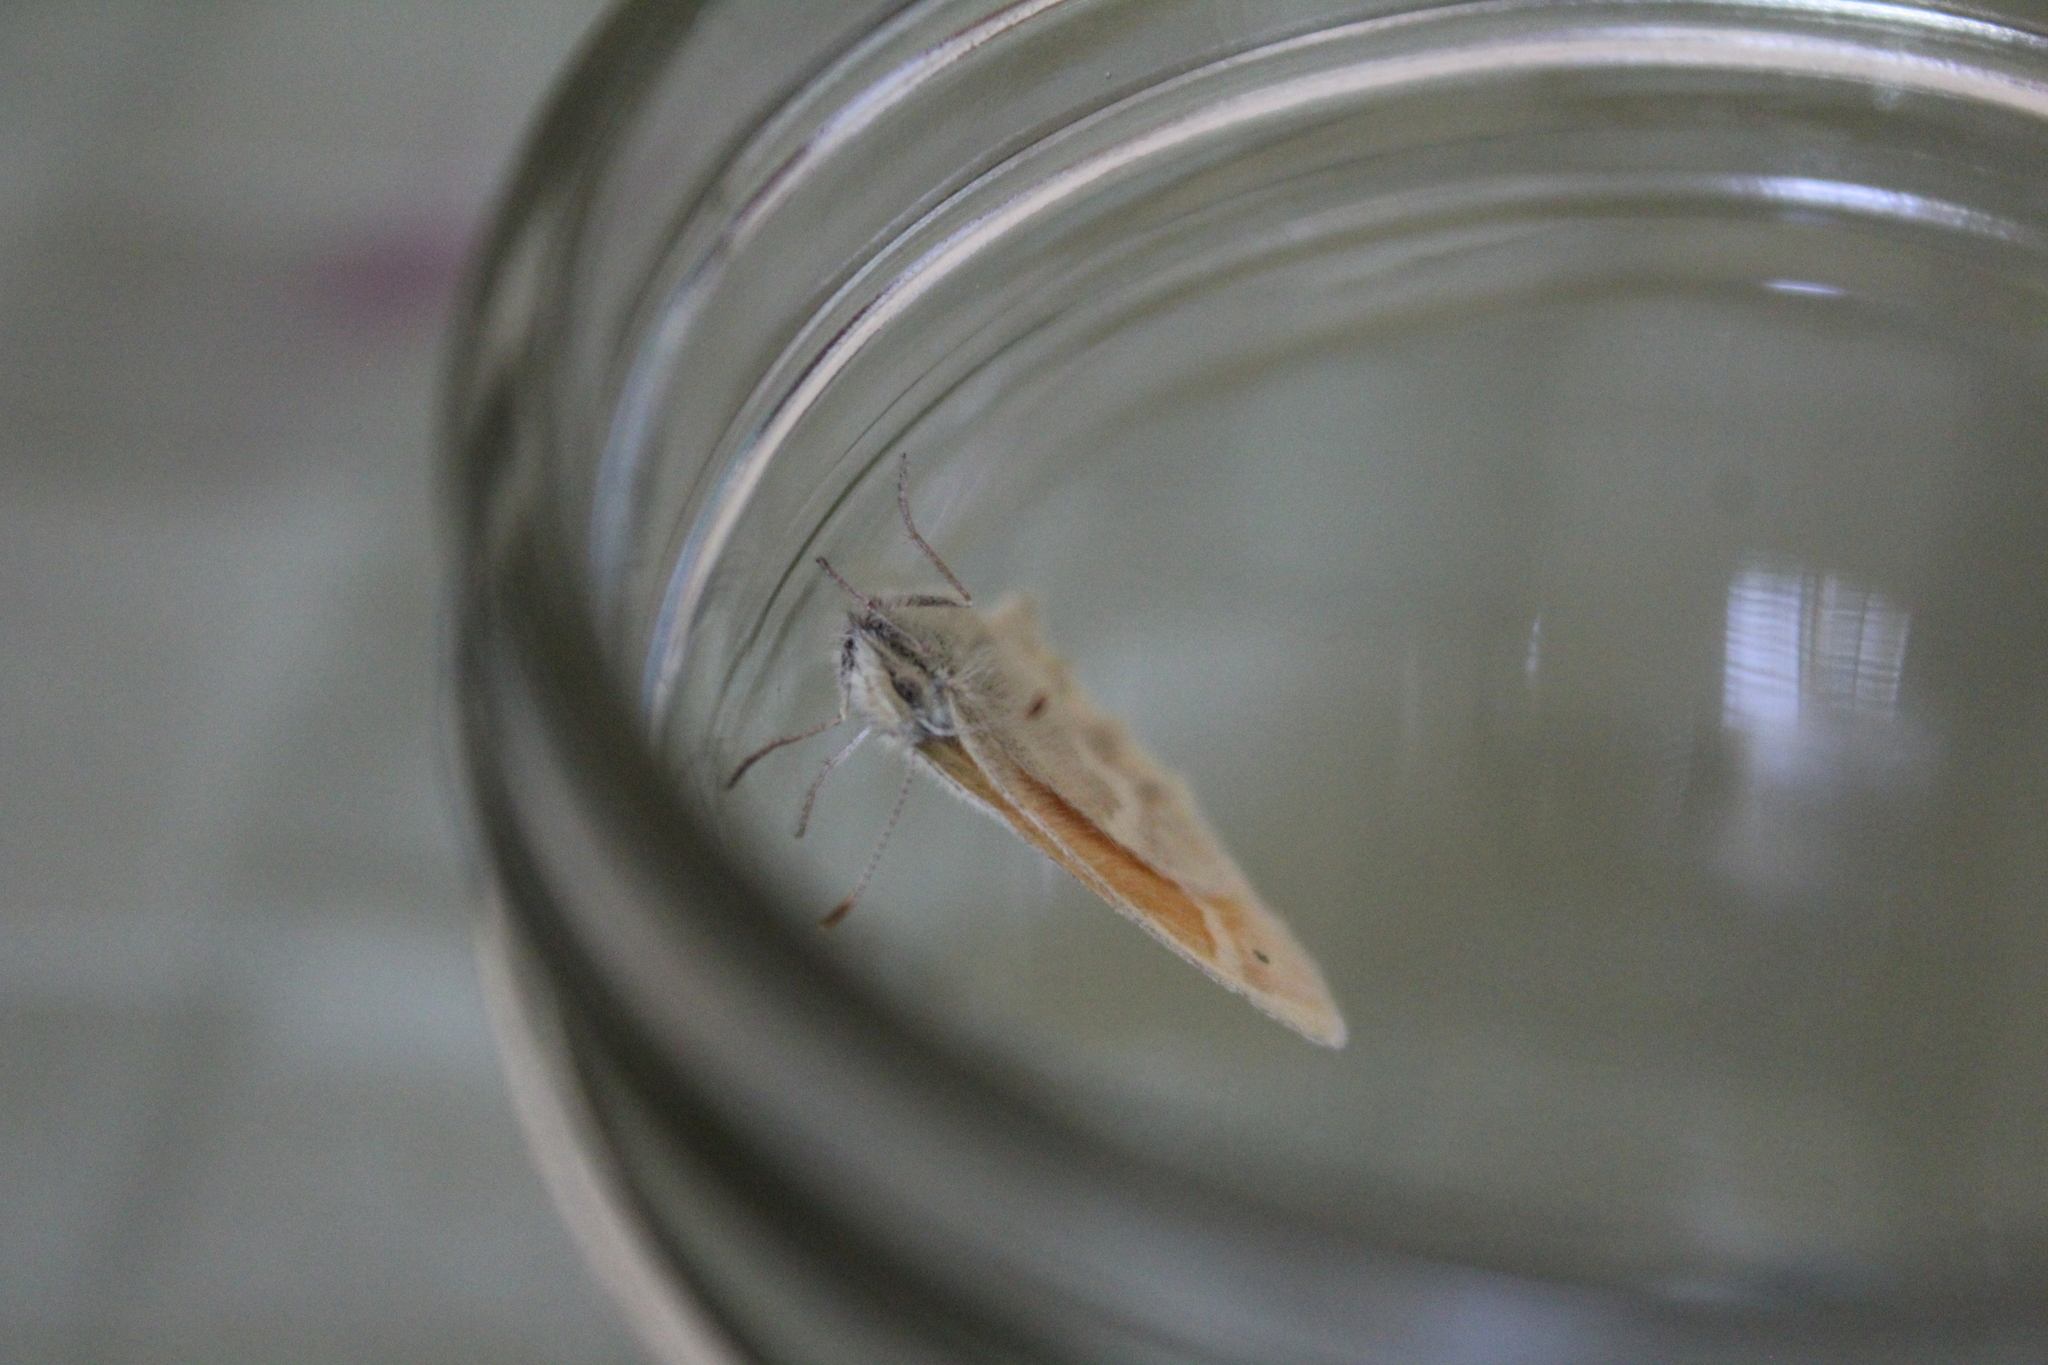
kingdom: Animalia
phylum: Arthropoda
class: Insecta
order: Lepidoptera
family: Nymphalidae
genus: Coenonympha
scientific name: Coenonympha california
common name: Common ringlet
